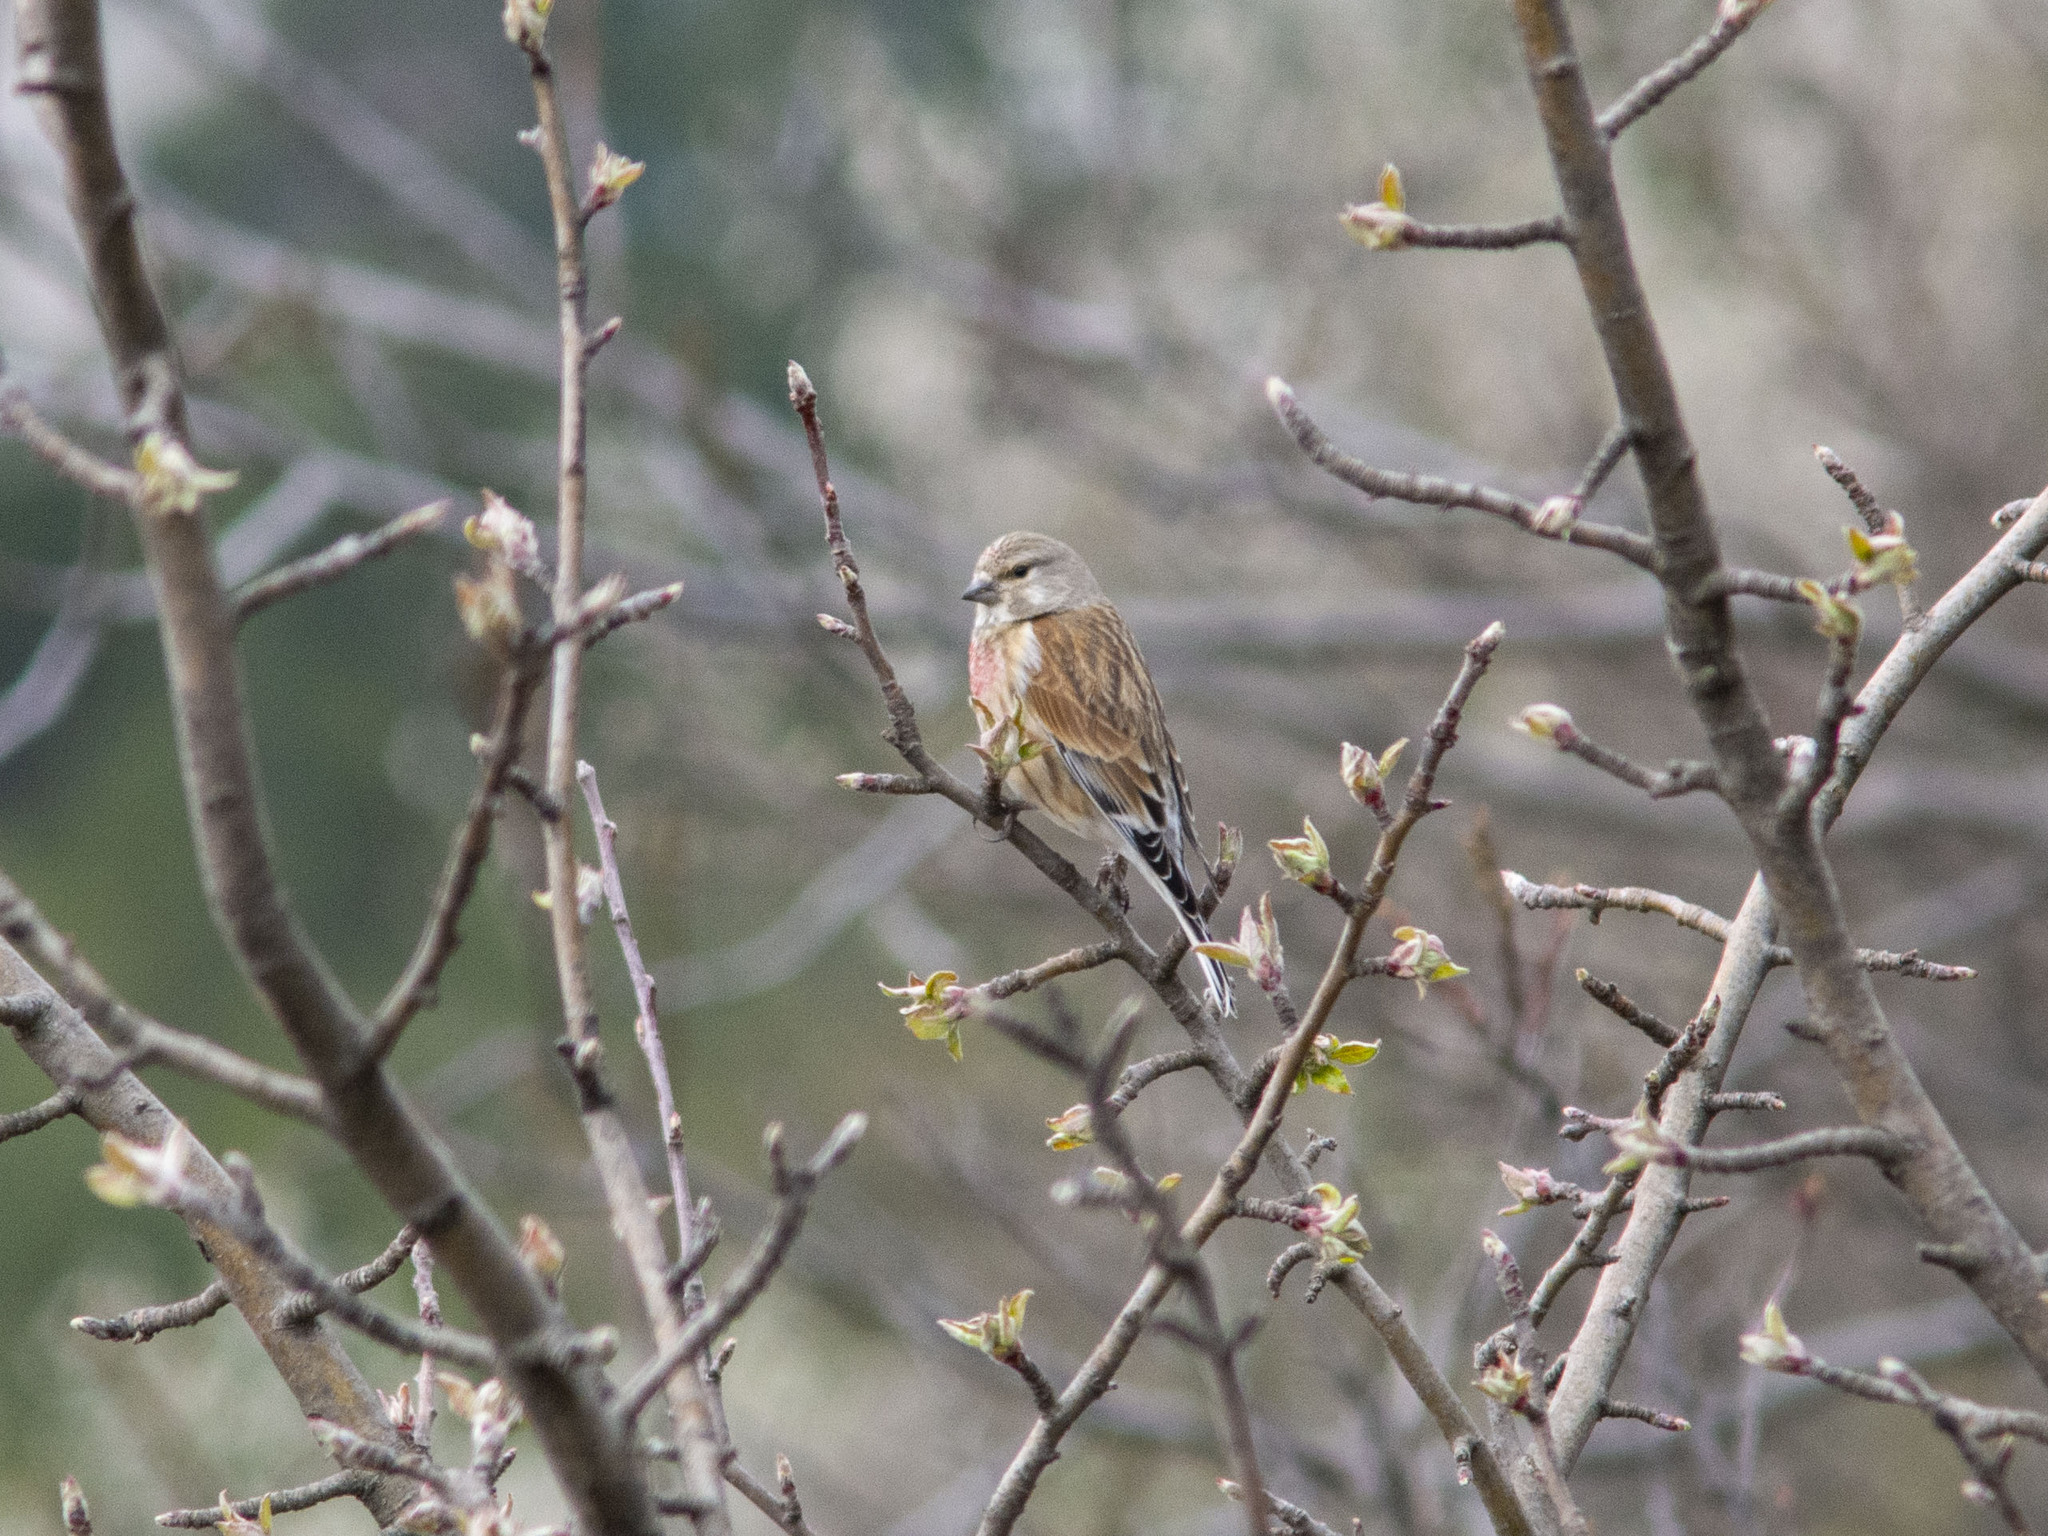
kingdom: Animalia
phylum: Chordata
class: Aves
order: Passeriformes
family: Fringillidae
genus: Linaria
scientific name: Linaria cannabina
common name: Common linnet
